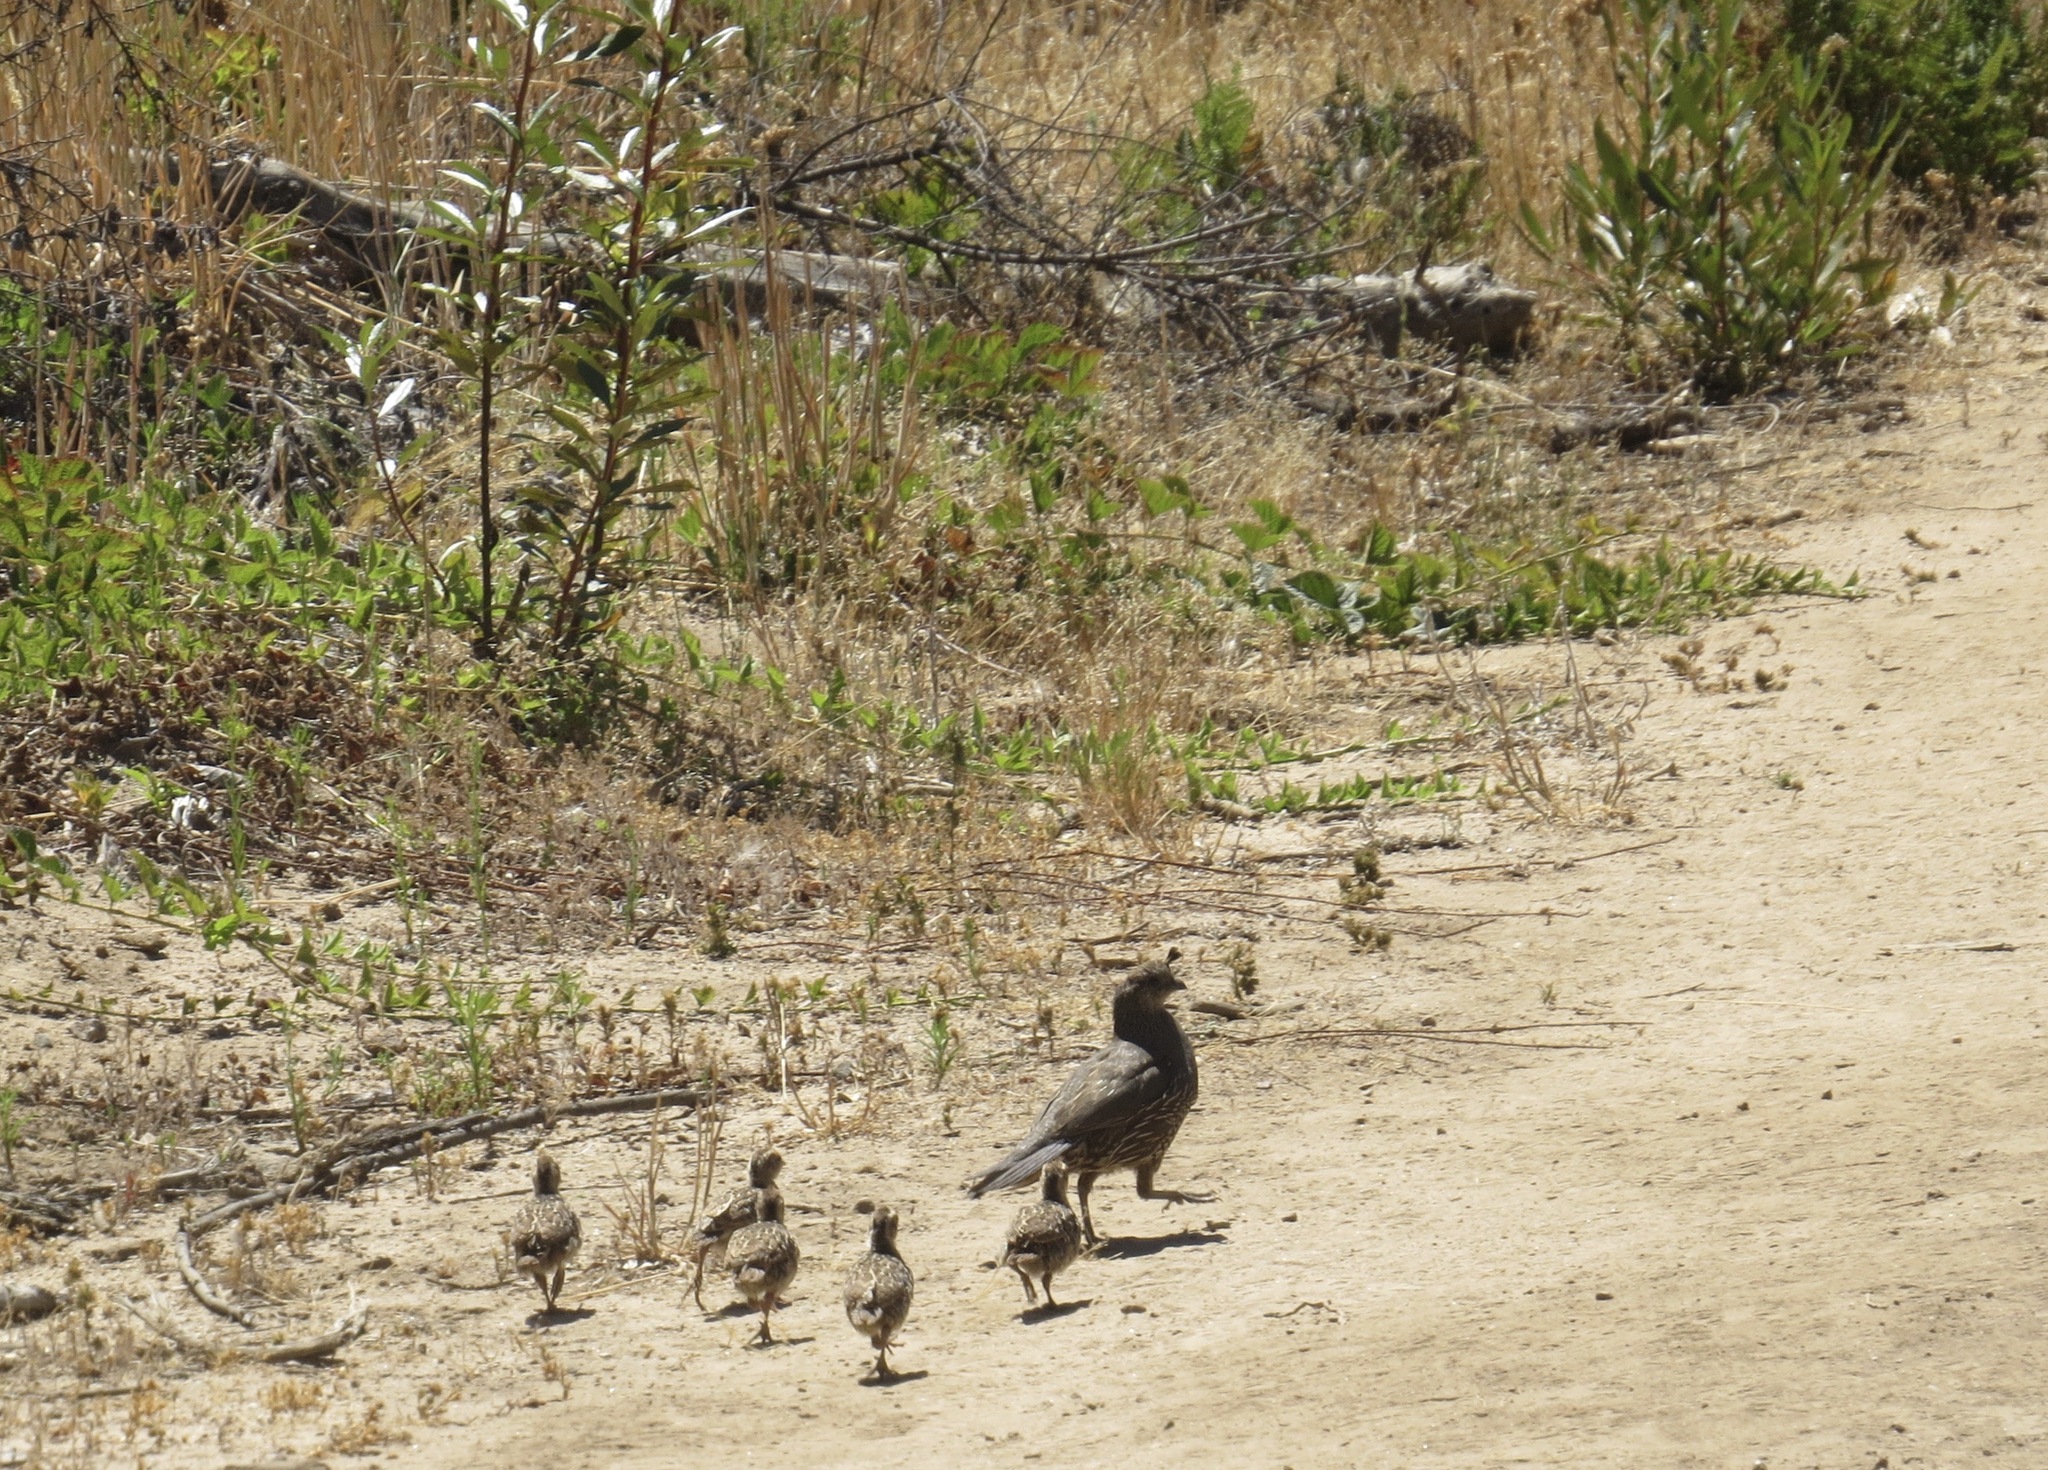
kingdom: Animalia
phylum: Chordata
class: Aves
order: Galliformes
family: Odontophoridae
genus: Callipepla
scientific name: Callipepla californica
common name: California quail
